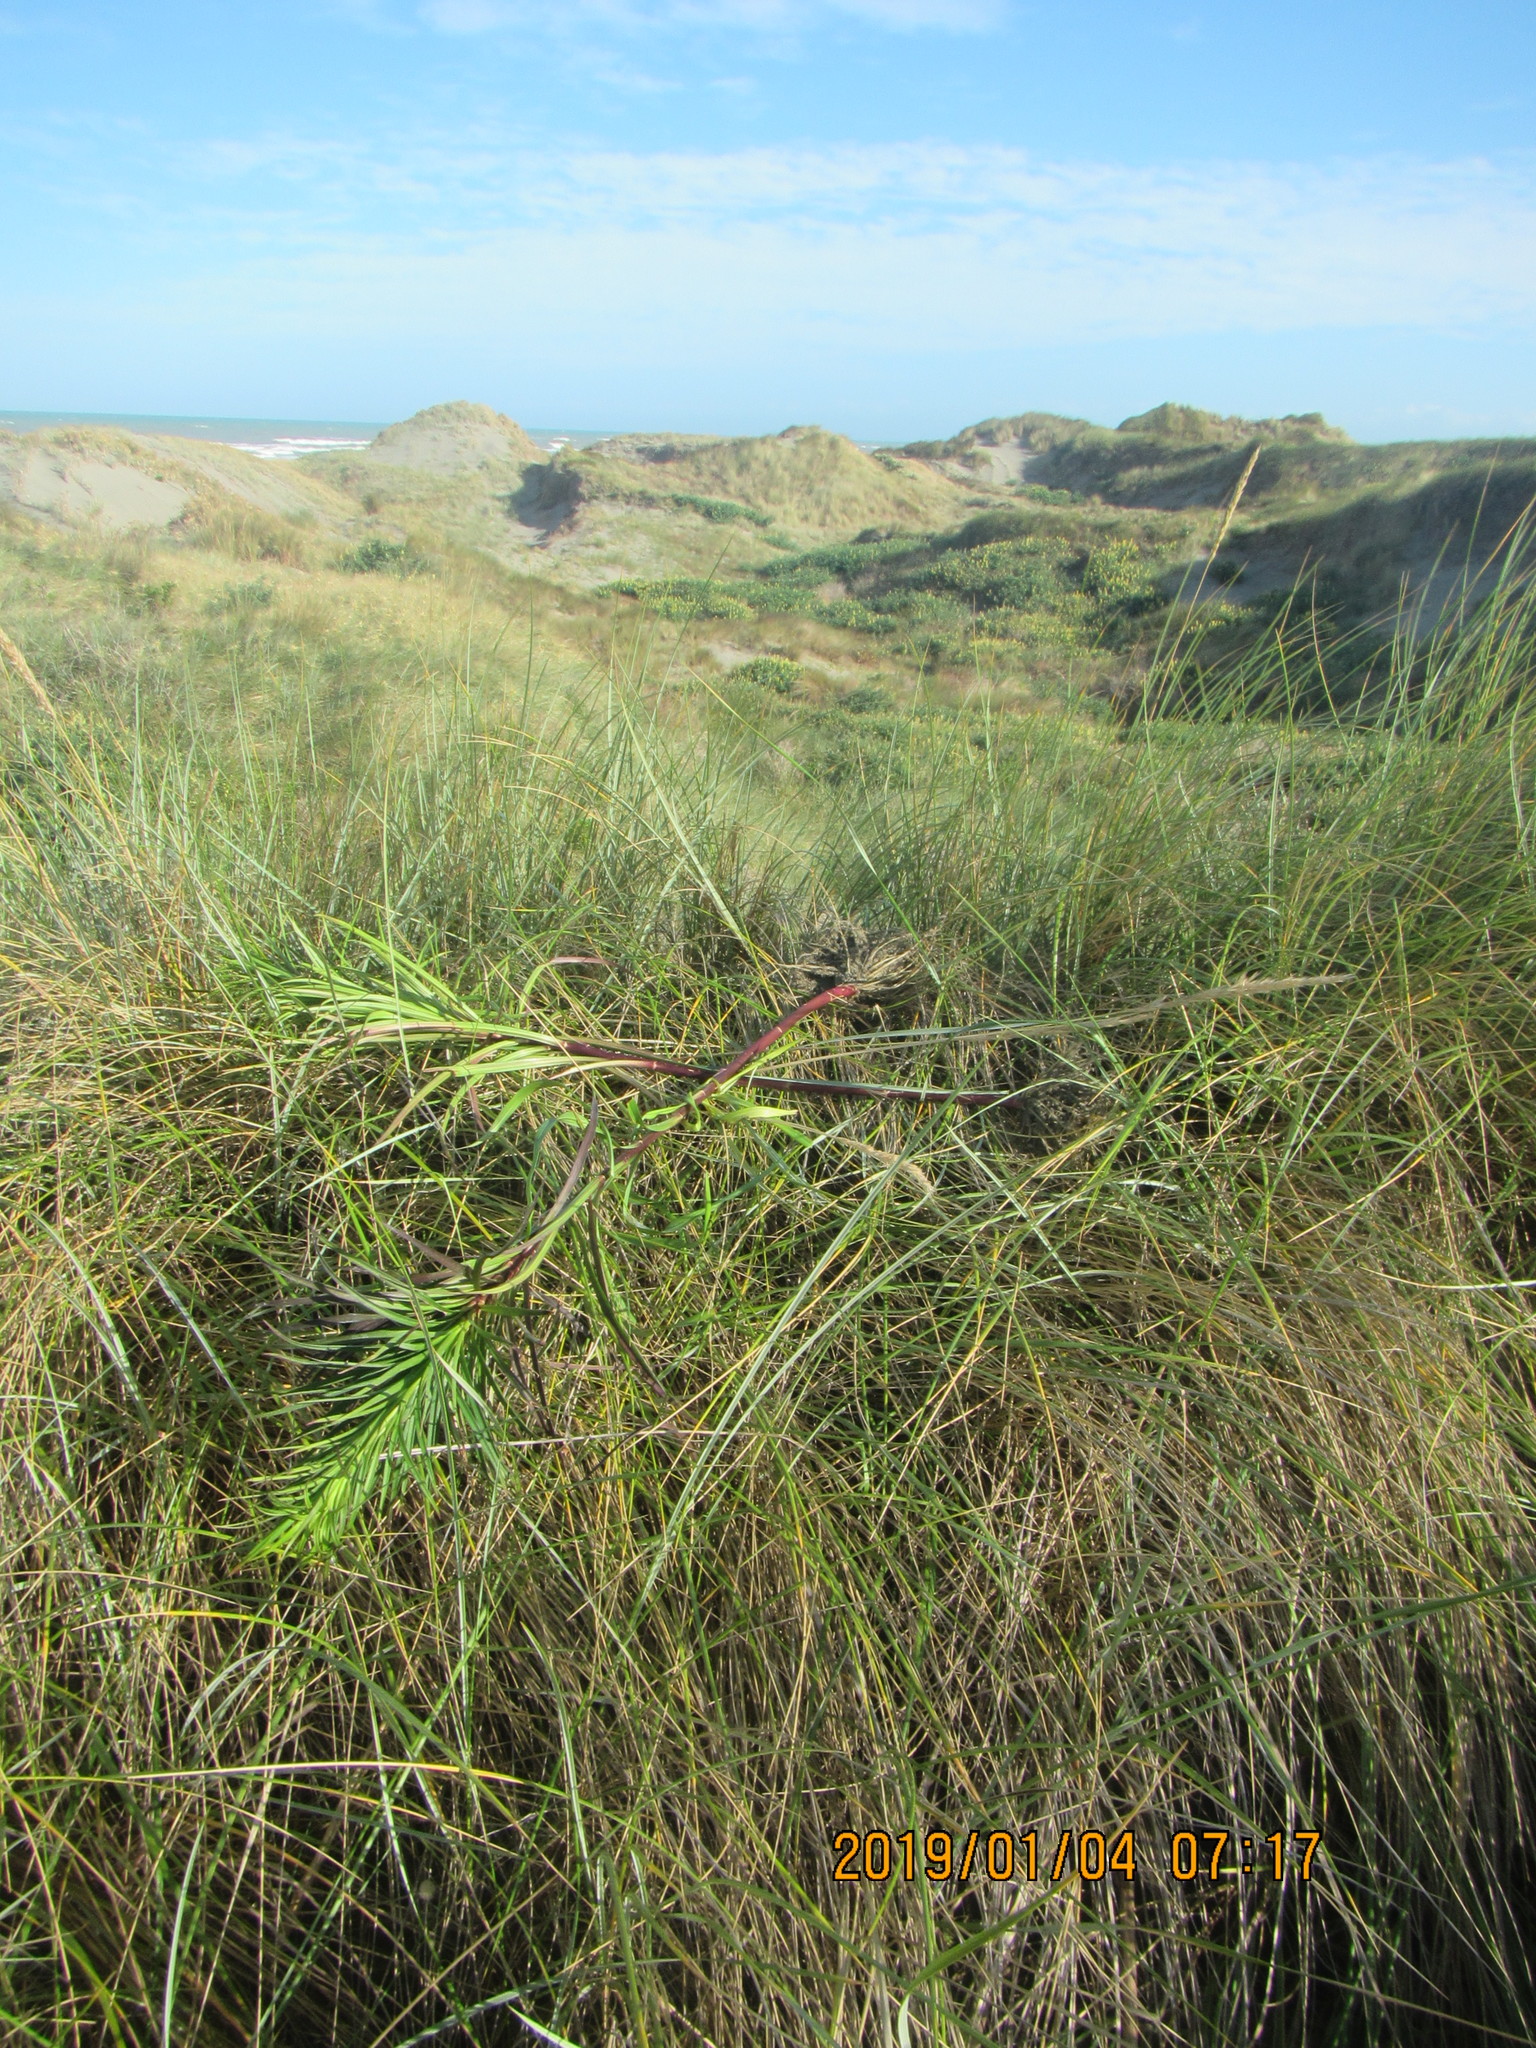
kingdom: Plantae
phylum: Tracheophyta
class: Liliopsida
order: Liliales
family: Liliaceae
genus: Lilium
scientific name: Lilium formosanum
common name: Formosa lily
